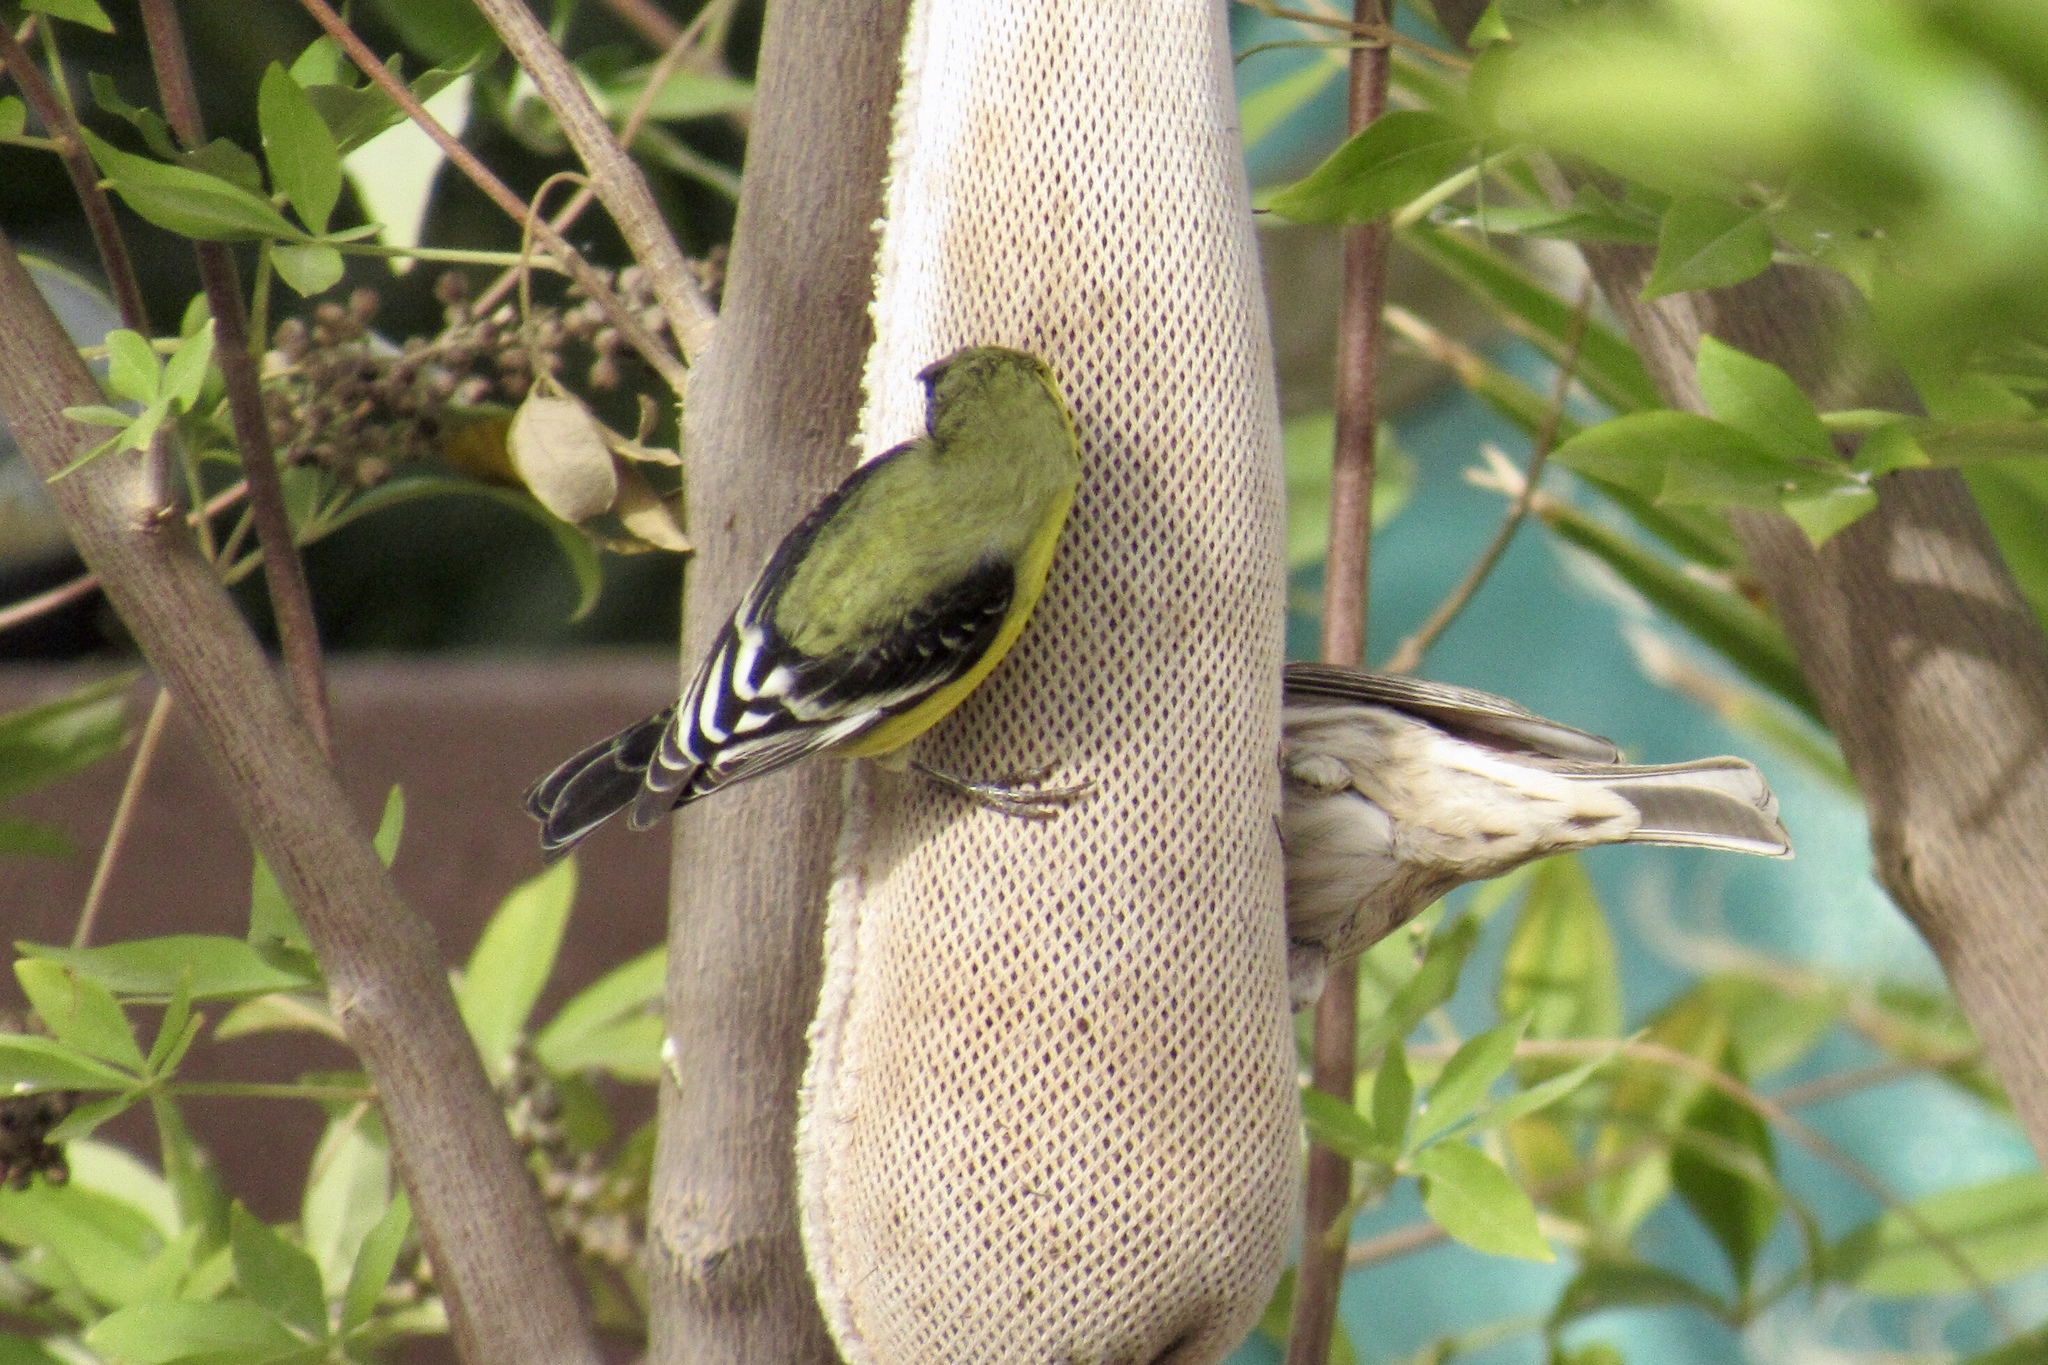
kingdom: Animalia
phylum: Chordata
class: Aves
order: Passeriformes
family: Fringillidae
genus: Spinus
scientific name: Spinus psaltria
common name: Lesser goldfinch
